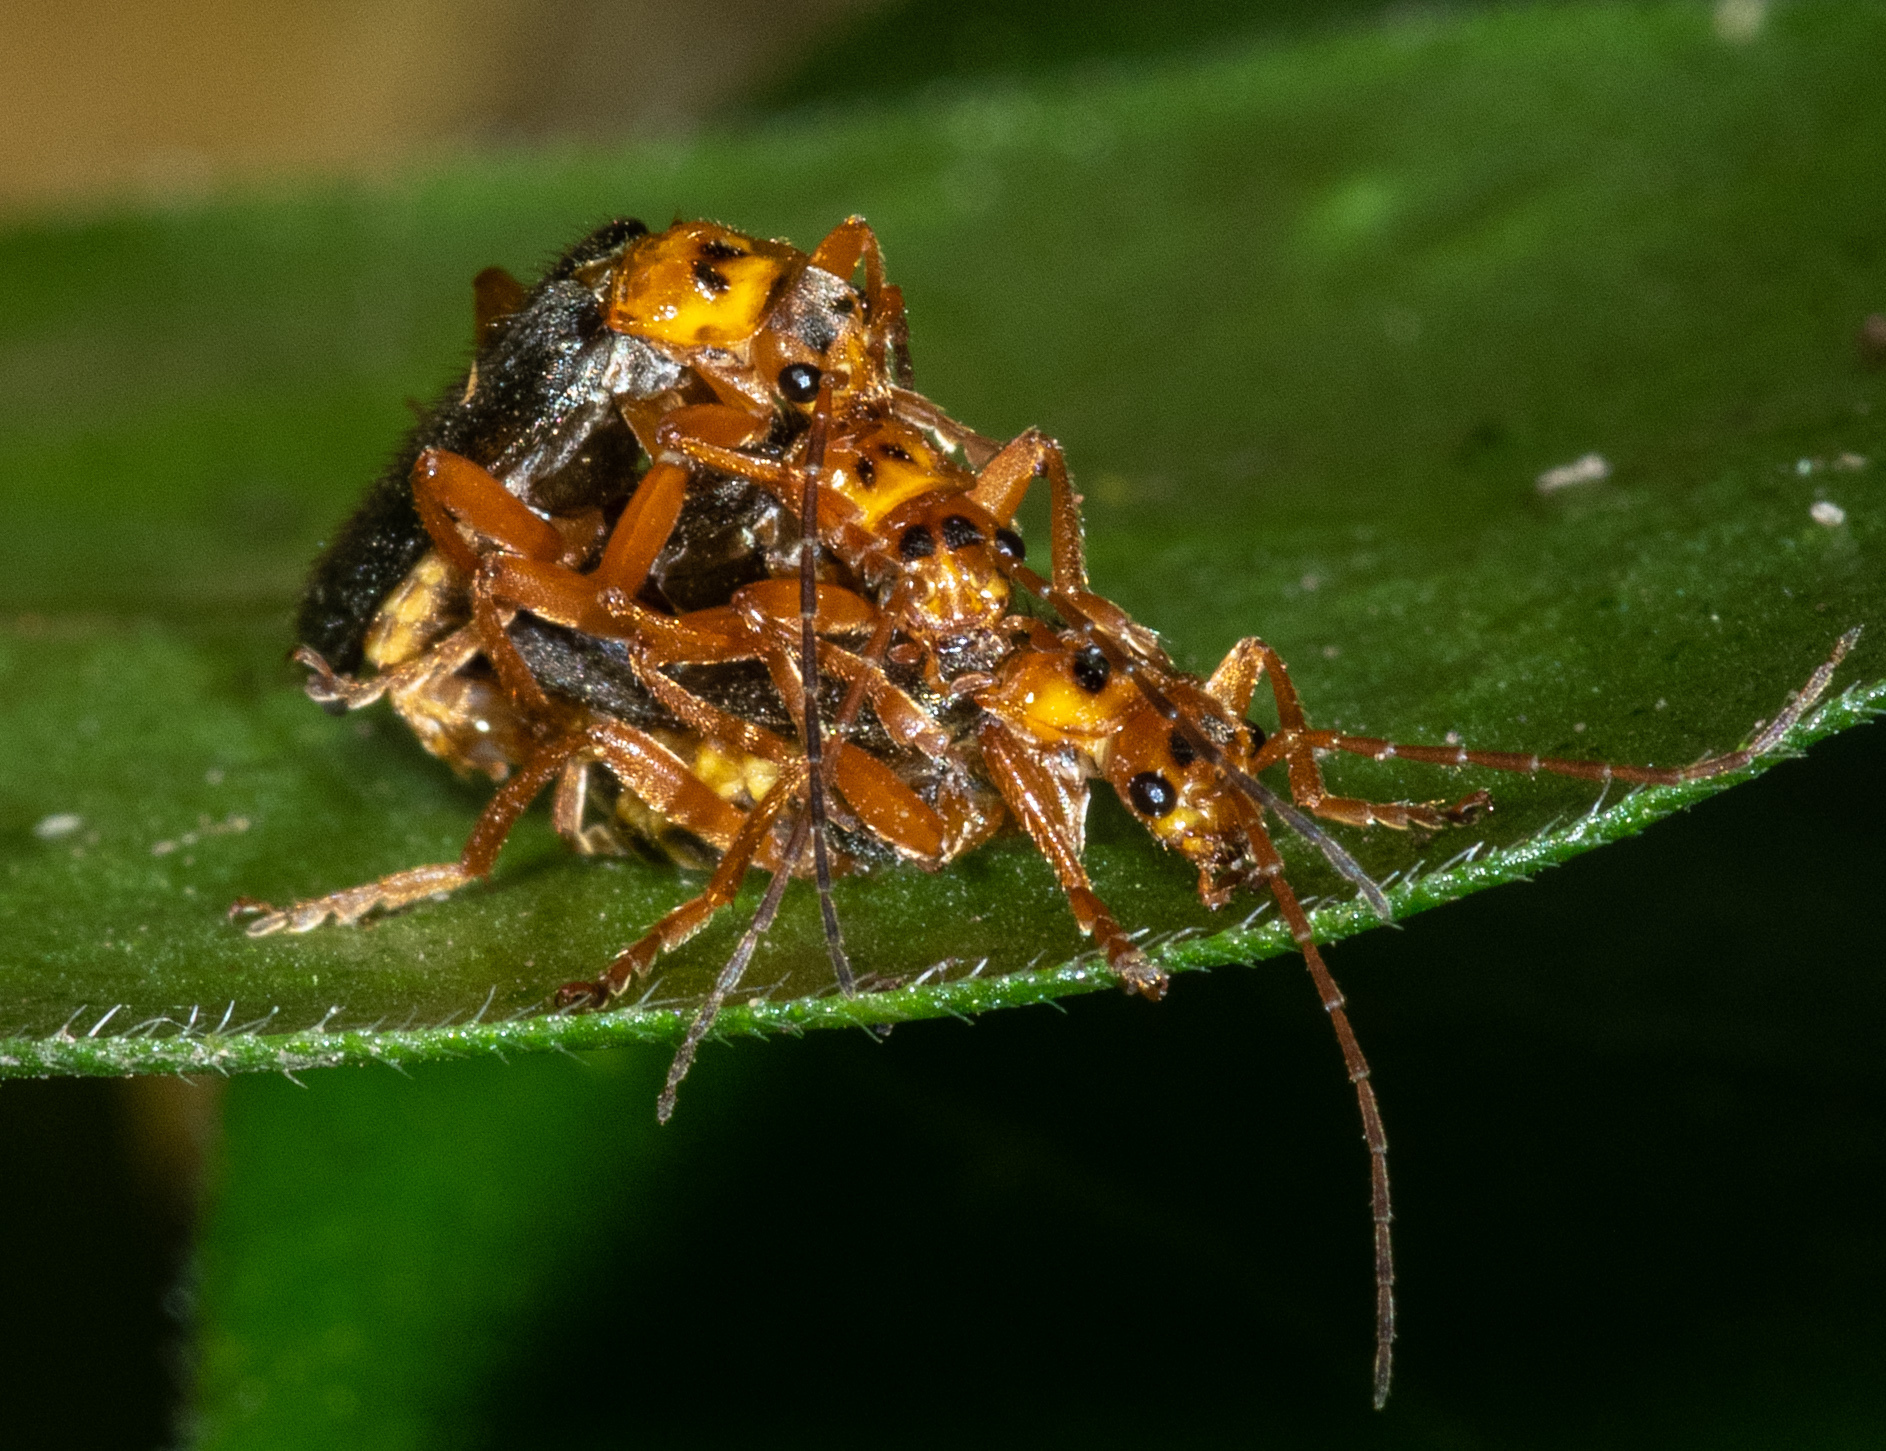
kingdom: Animalia
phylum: Arthropoda
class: Insecta
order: Coleoptera
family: Cantharidae
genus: Cultellunguis
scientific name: Cultellunguis americanus
